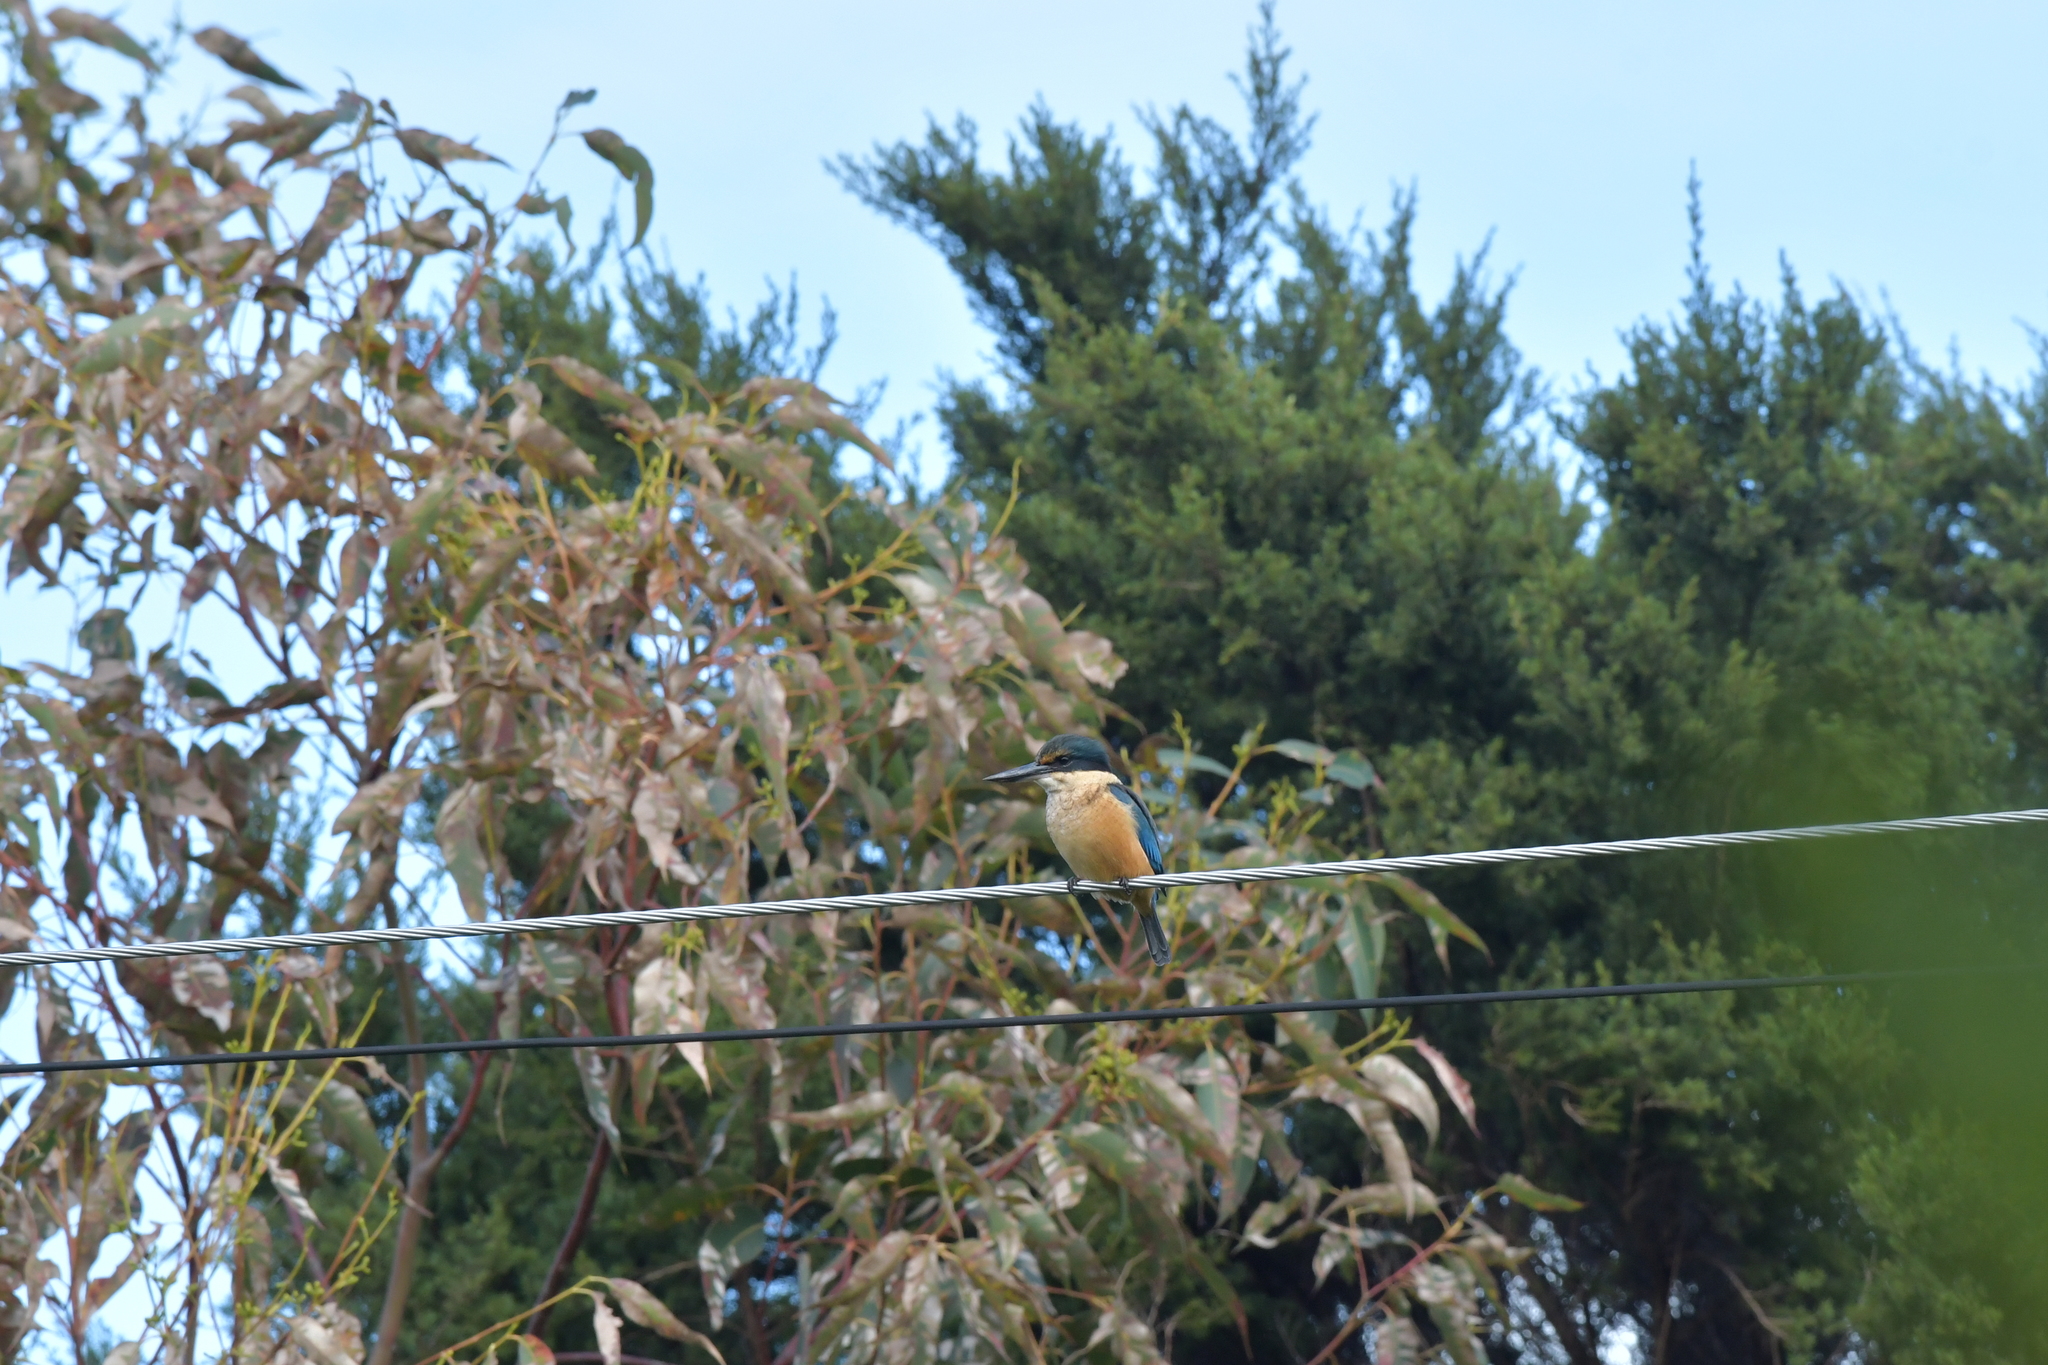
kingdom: Animalia
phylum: Chordata
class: Aves
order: Coraciiformes
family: Alcedinidae
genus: Todiramphus
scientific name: Todiramphus sanctus
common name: Sacred kingfisher
